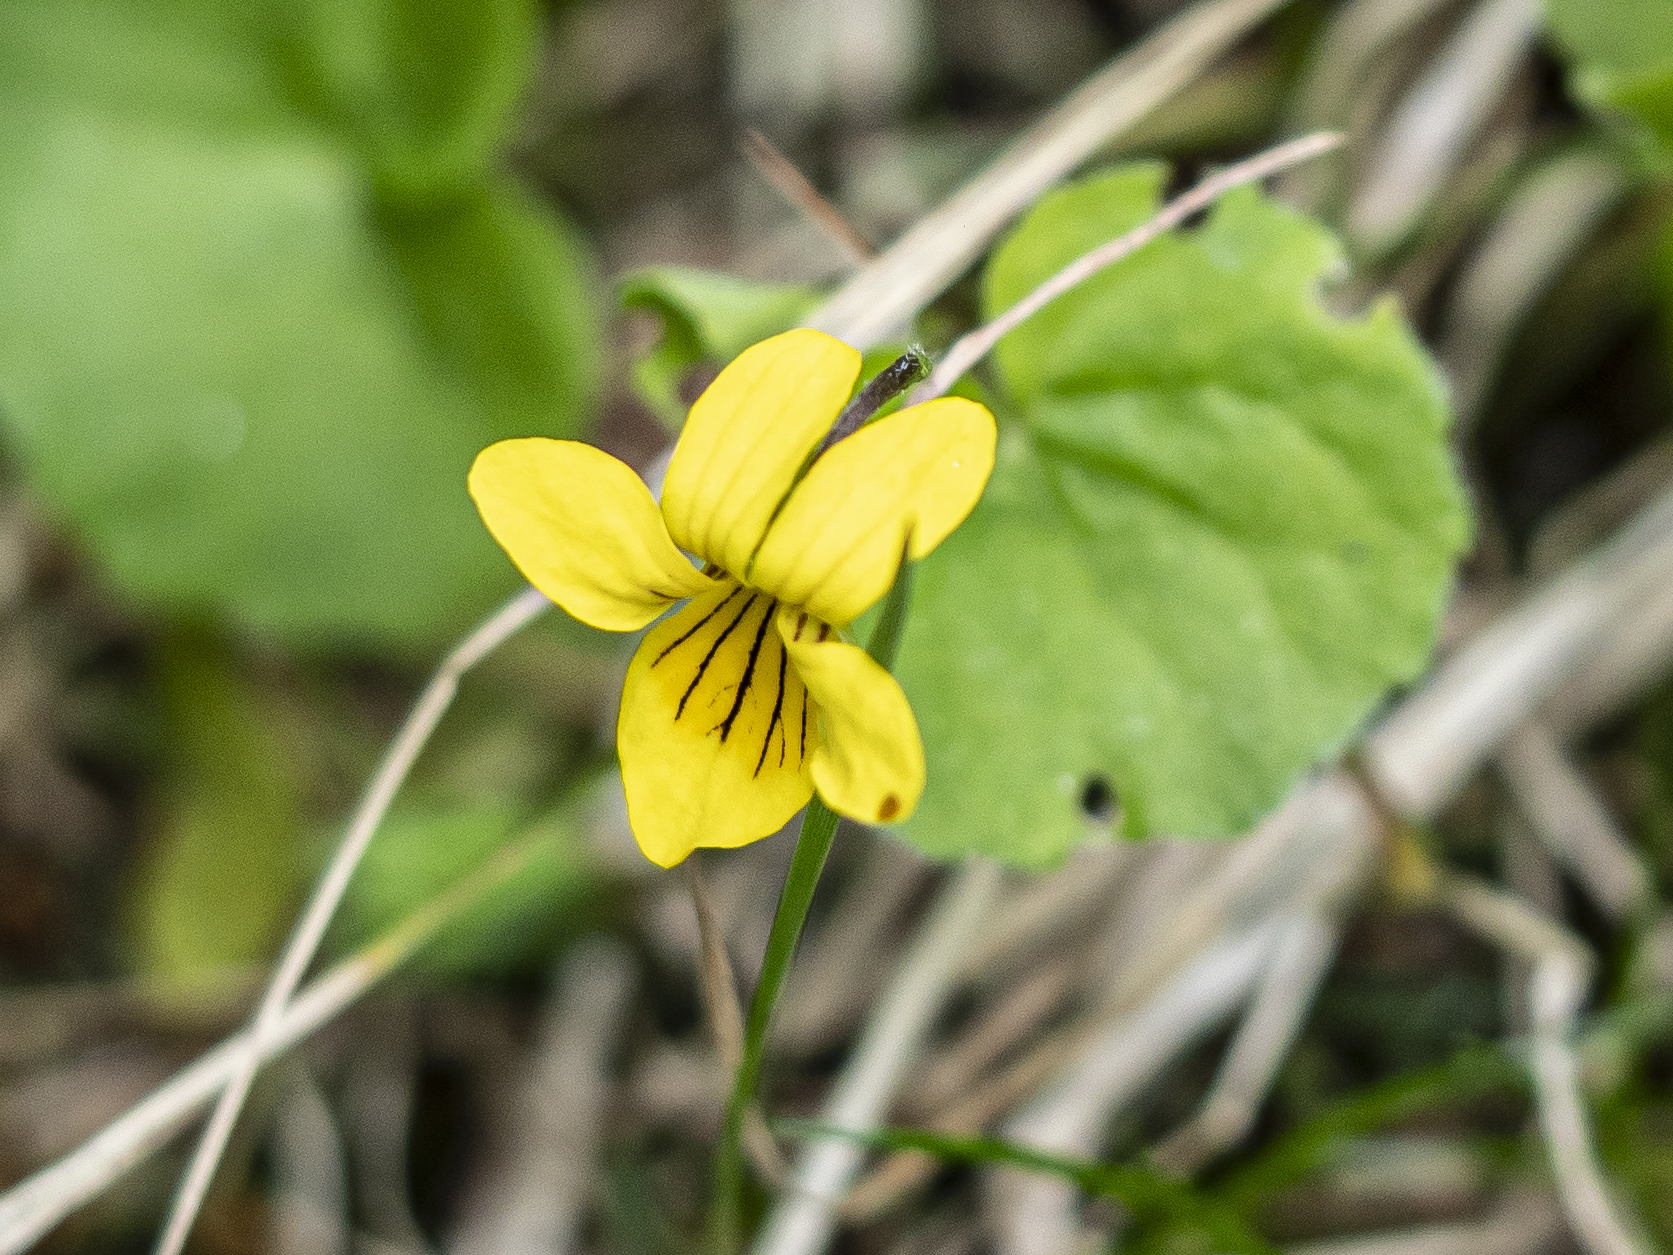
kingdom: Plantae
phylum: Tracheophyta
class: Magnoliopsida
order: Malpighiales
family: Violaceae
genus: Viola
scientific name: Viola biflora
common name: Alpine yellow violet
